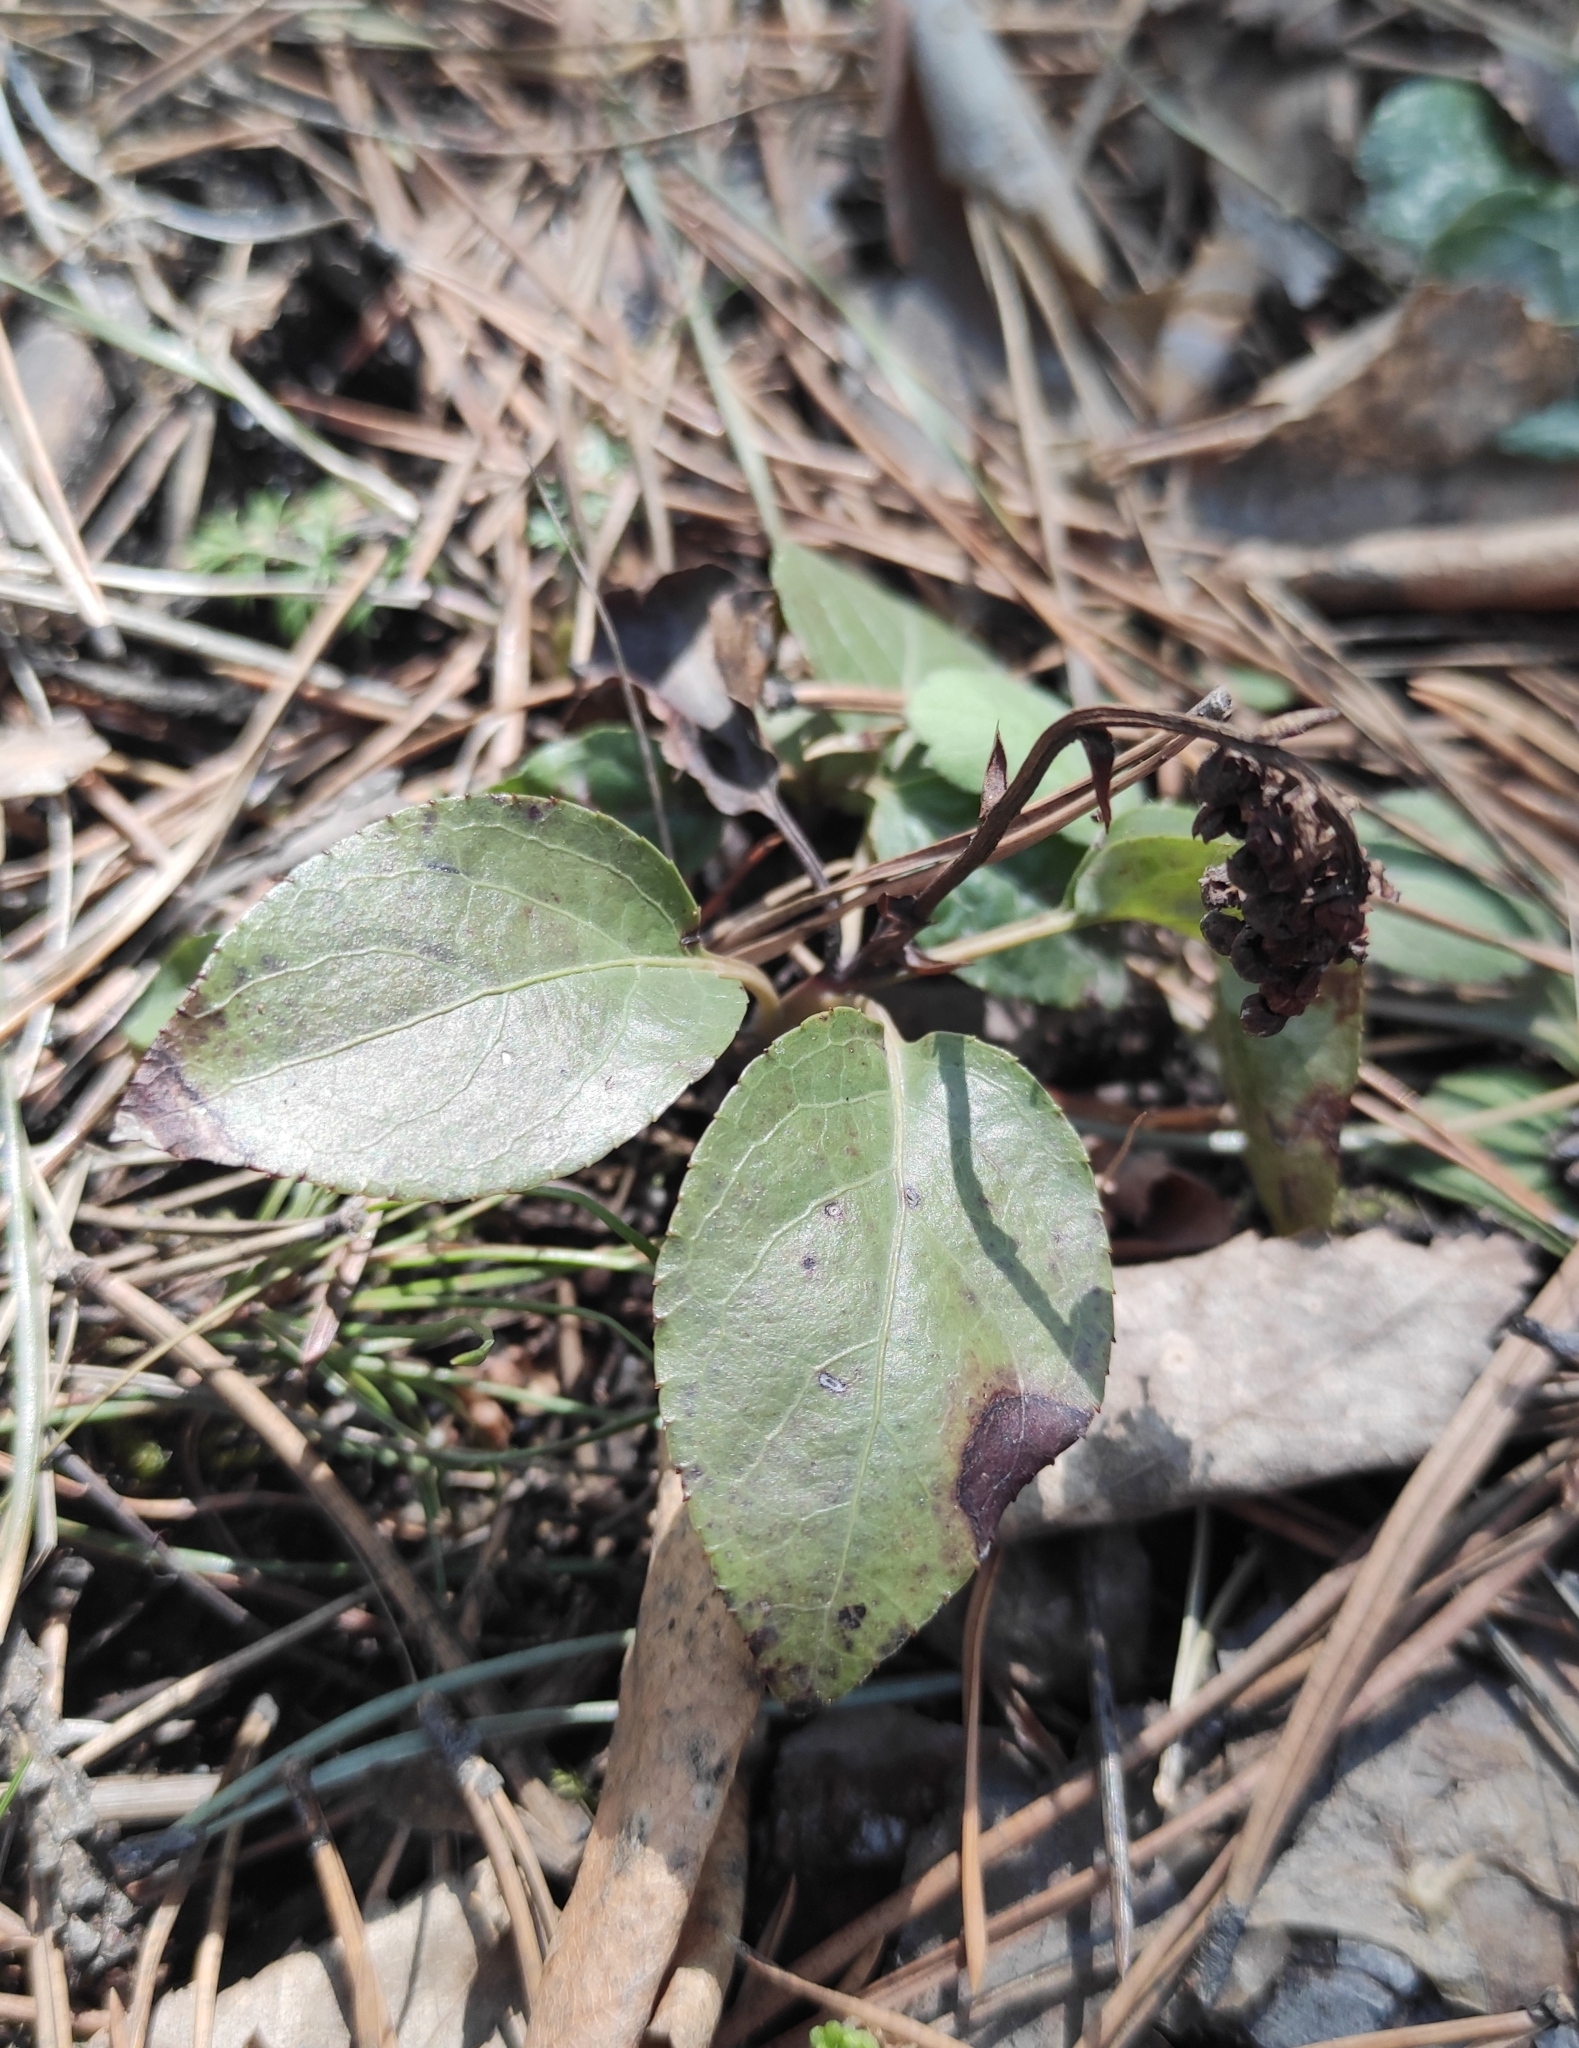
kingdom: Plantae
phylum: Tracheophyta
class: Magnoliopsida
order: Ericales
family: Ericaceae
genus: Orthilia
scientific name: Orthilia secunda
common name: One-sided orthilia
